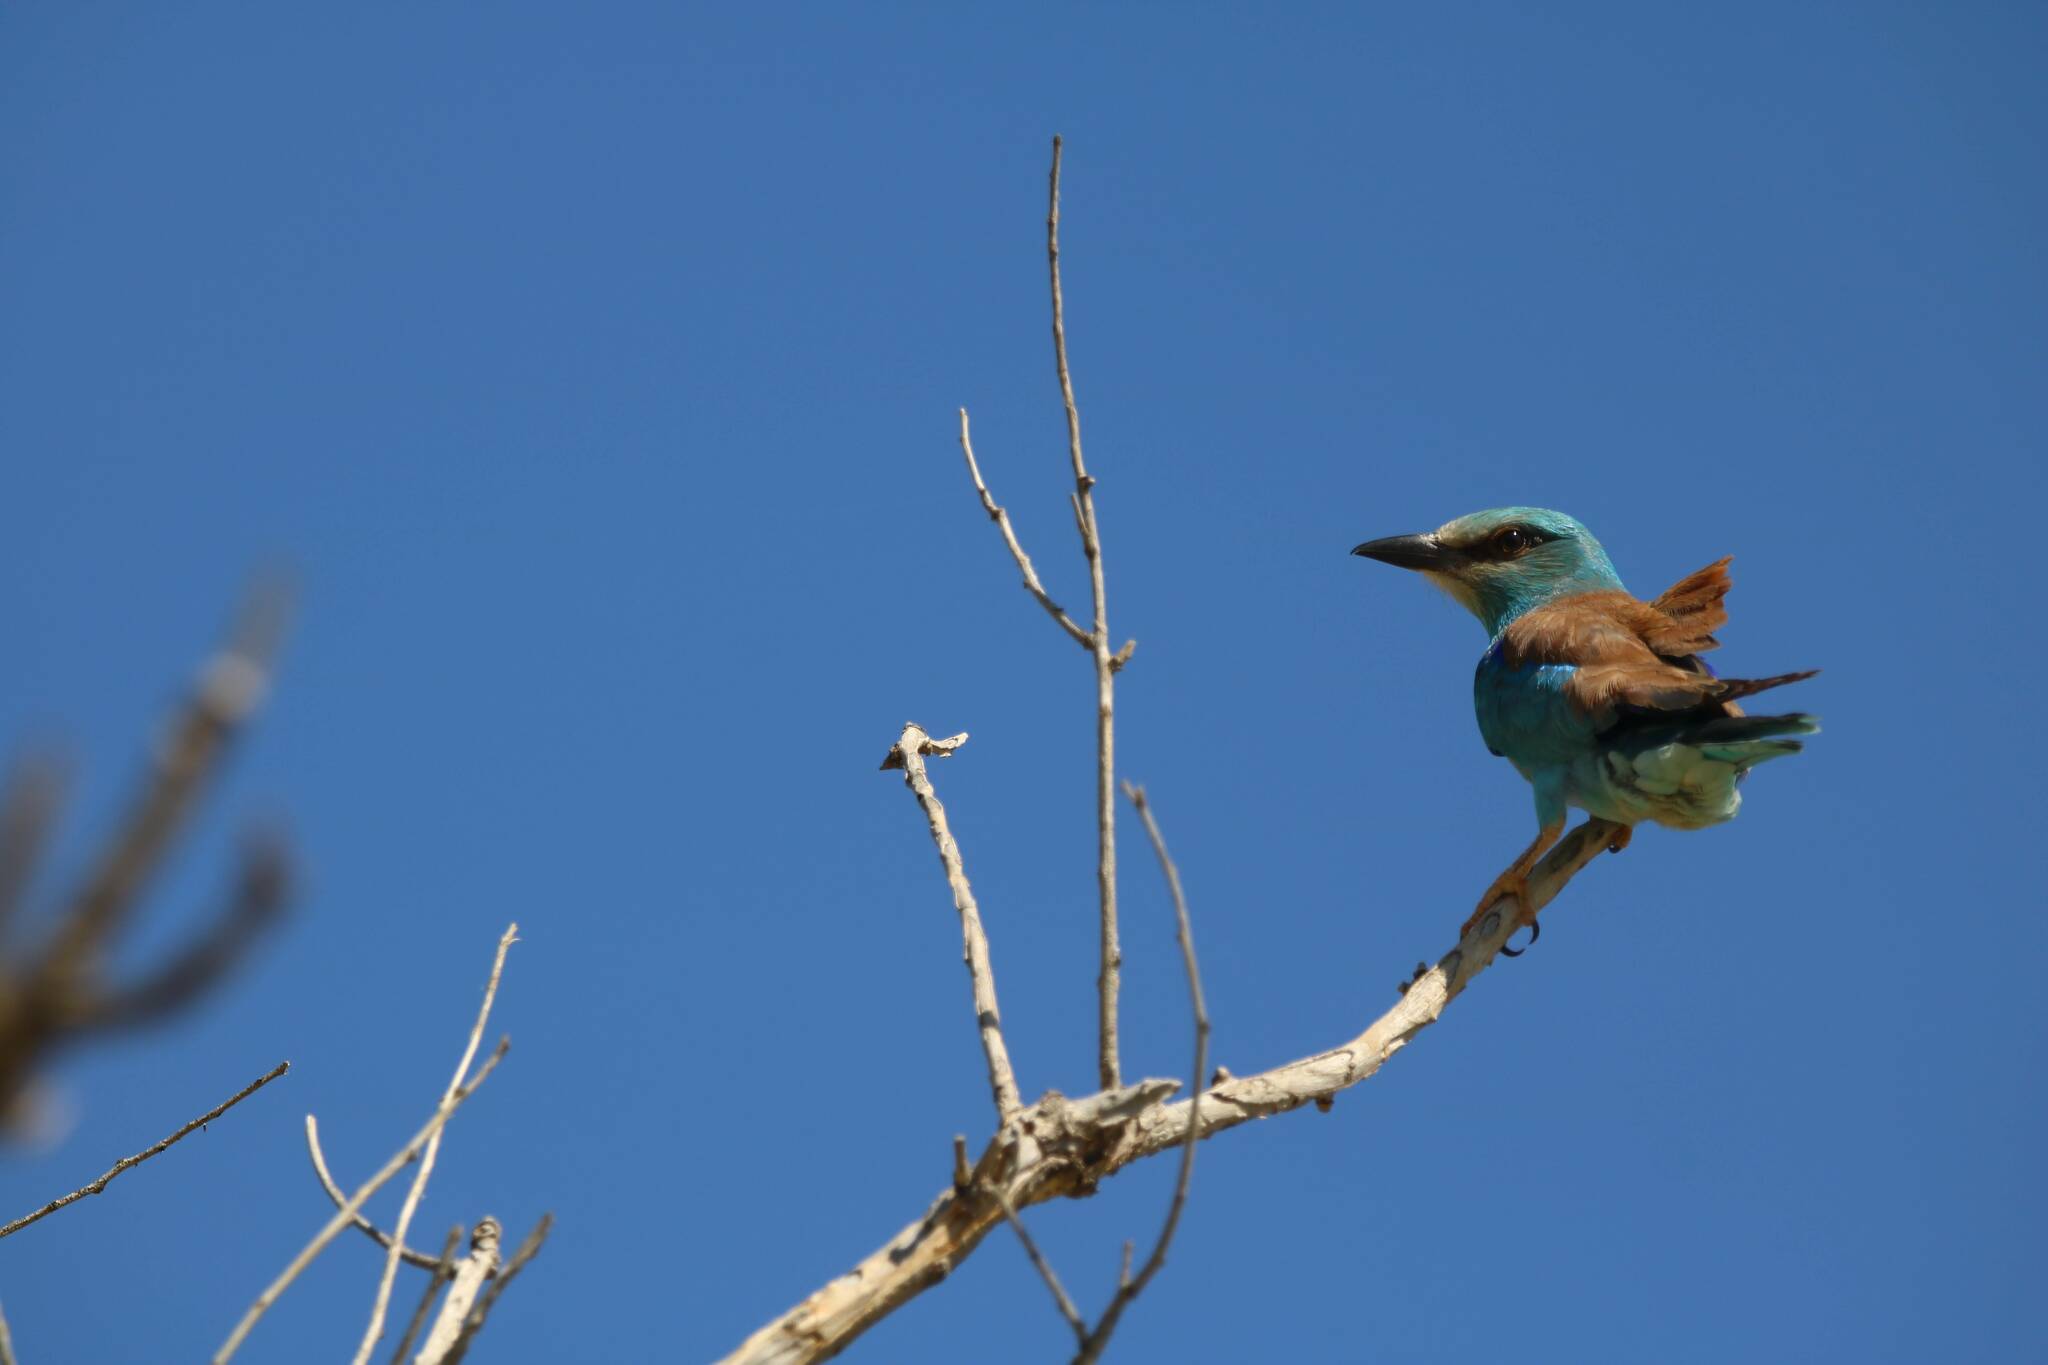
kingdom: Animalia
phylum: Chordata
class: Aves
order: Coraciiformes
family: Coraciidae
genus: Coracias
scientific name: Coracias garrulus
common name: European roller
